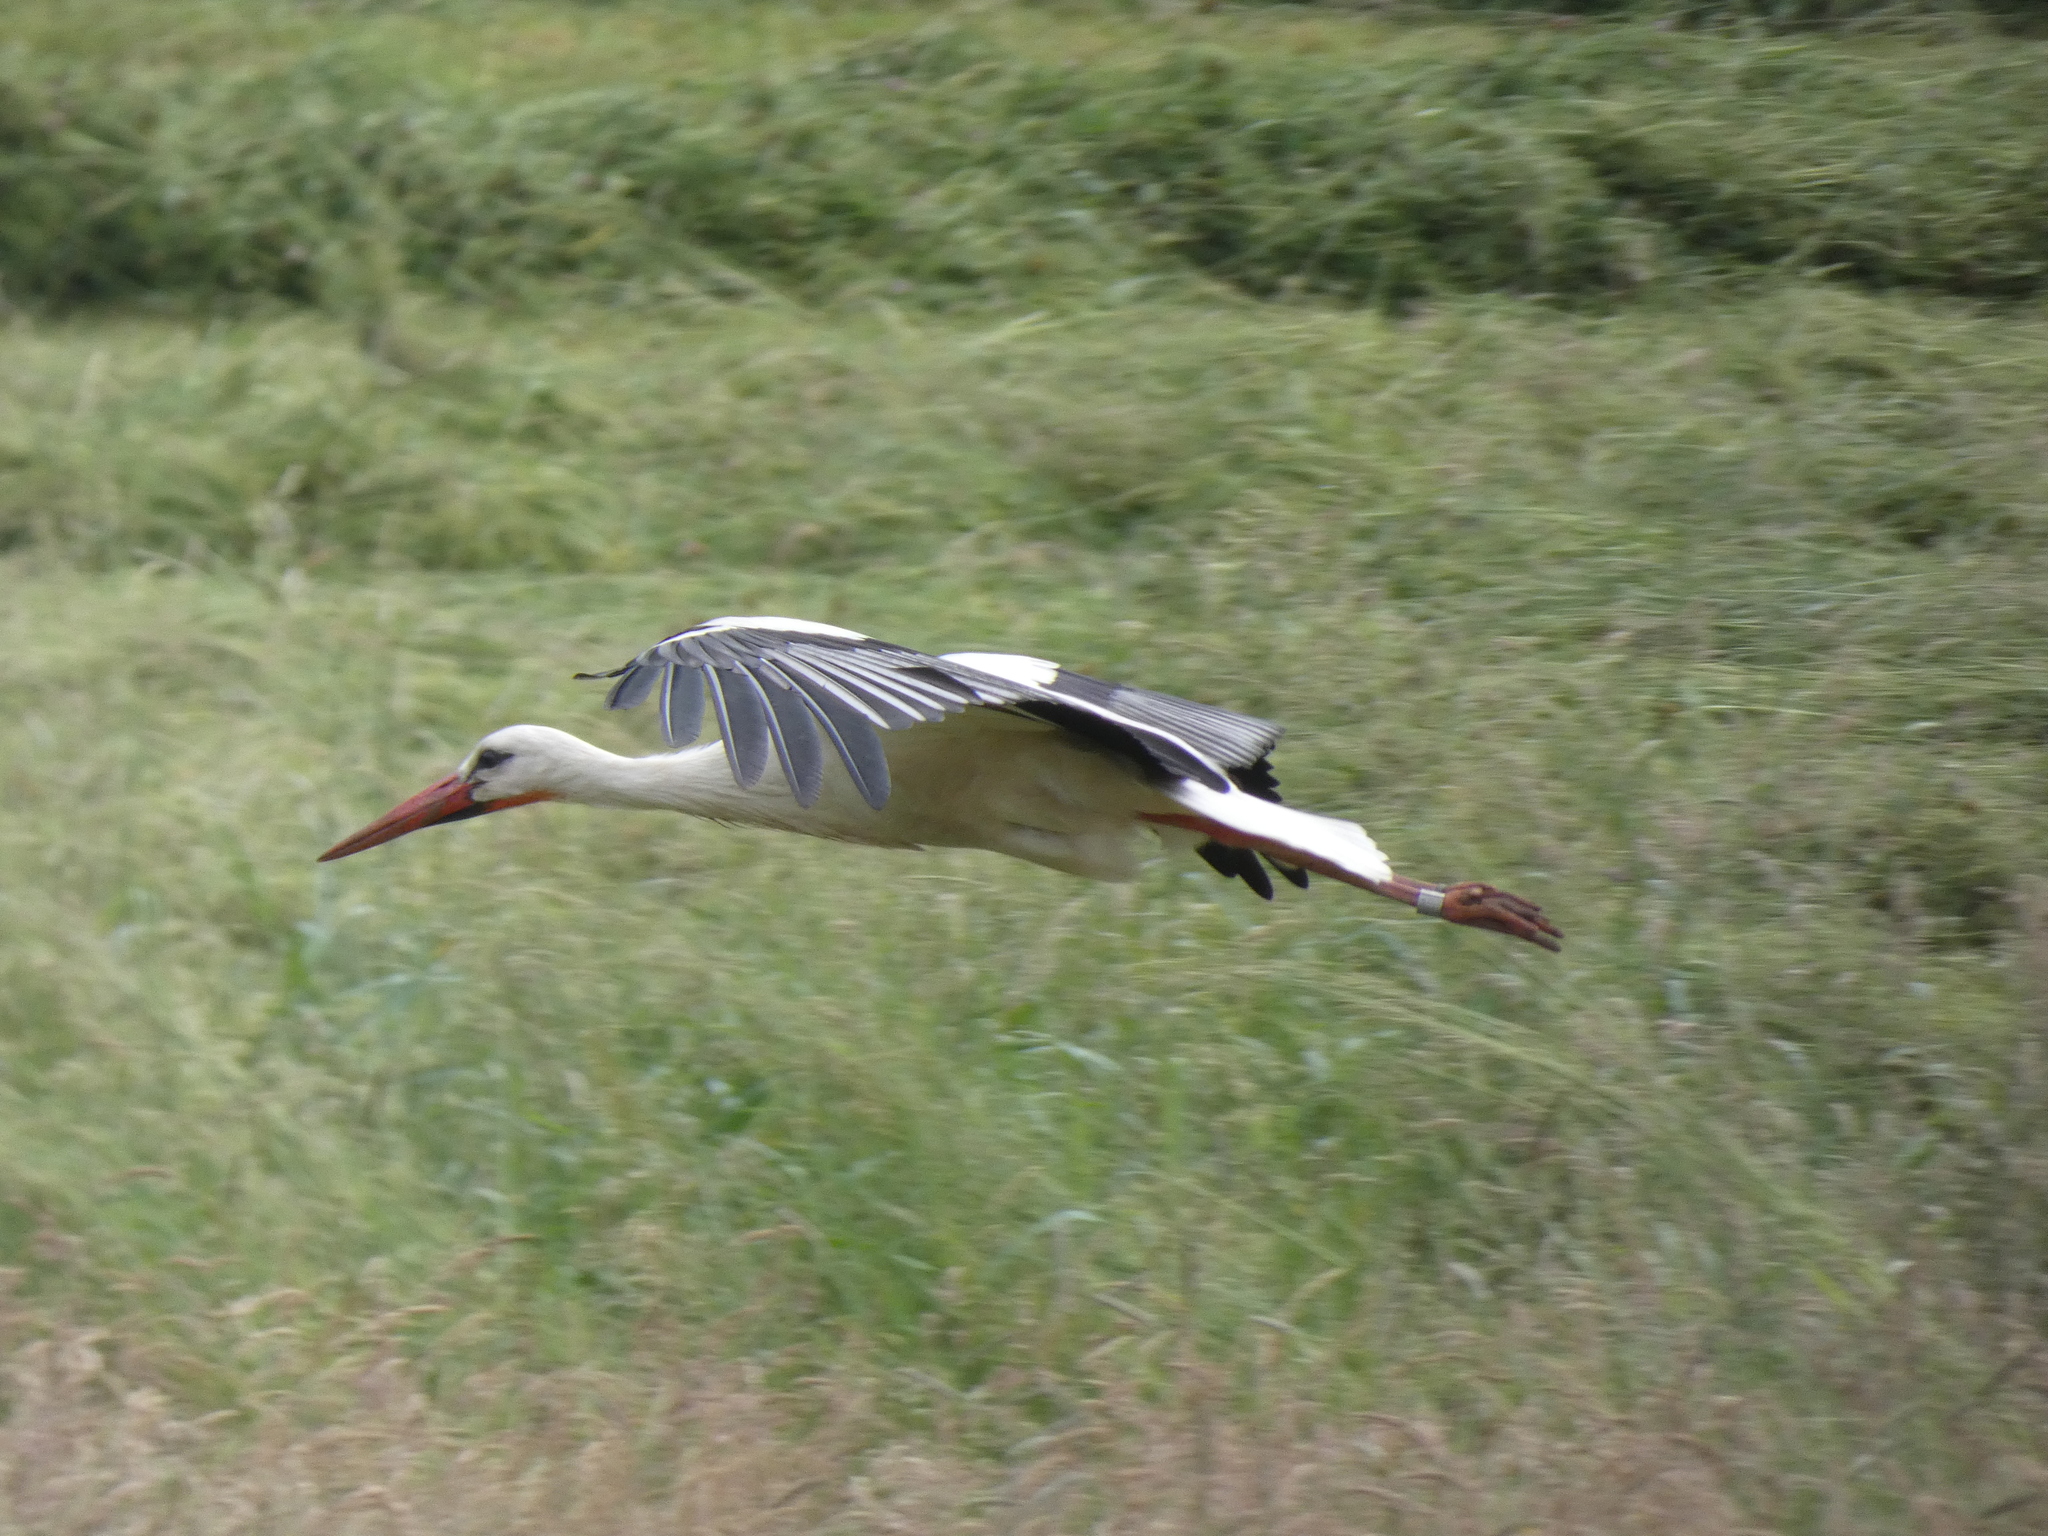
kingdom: Animalia
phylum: Chordata
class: Aves
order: Ciconiiformes
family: Ciconiidae
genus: Ciconia
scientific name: Ciconia ciconia
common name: White stork
